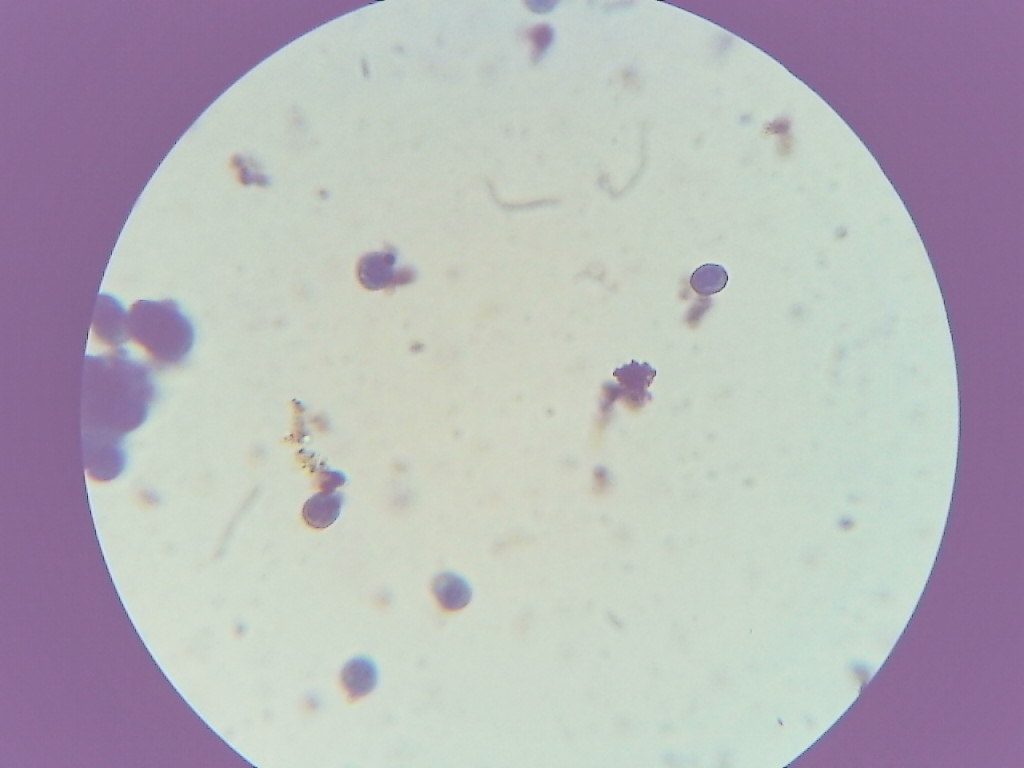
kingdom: Protozoa
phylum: Mycetozoa
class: Myxomycetes
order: Cribrariales
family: Cribrariaceae
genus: Lindbladia
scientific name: Lindbladia tubulina
